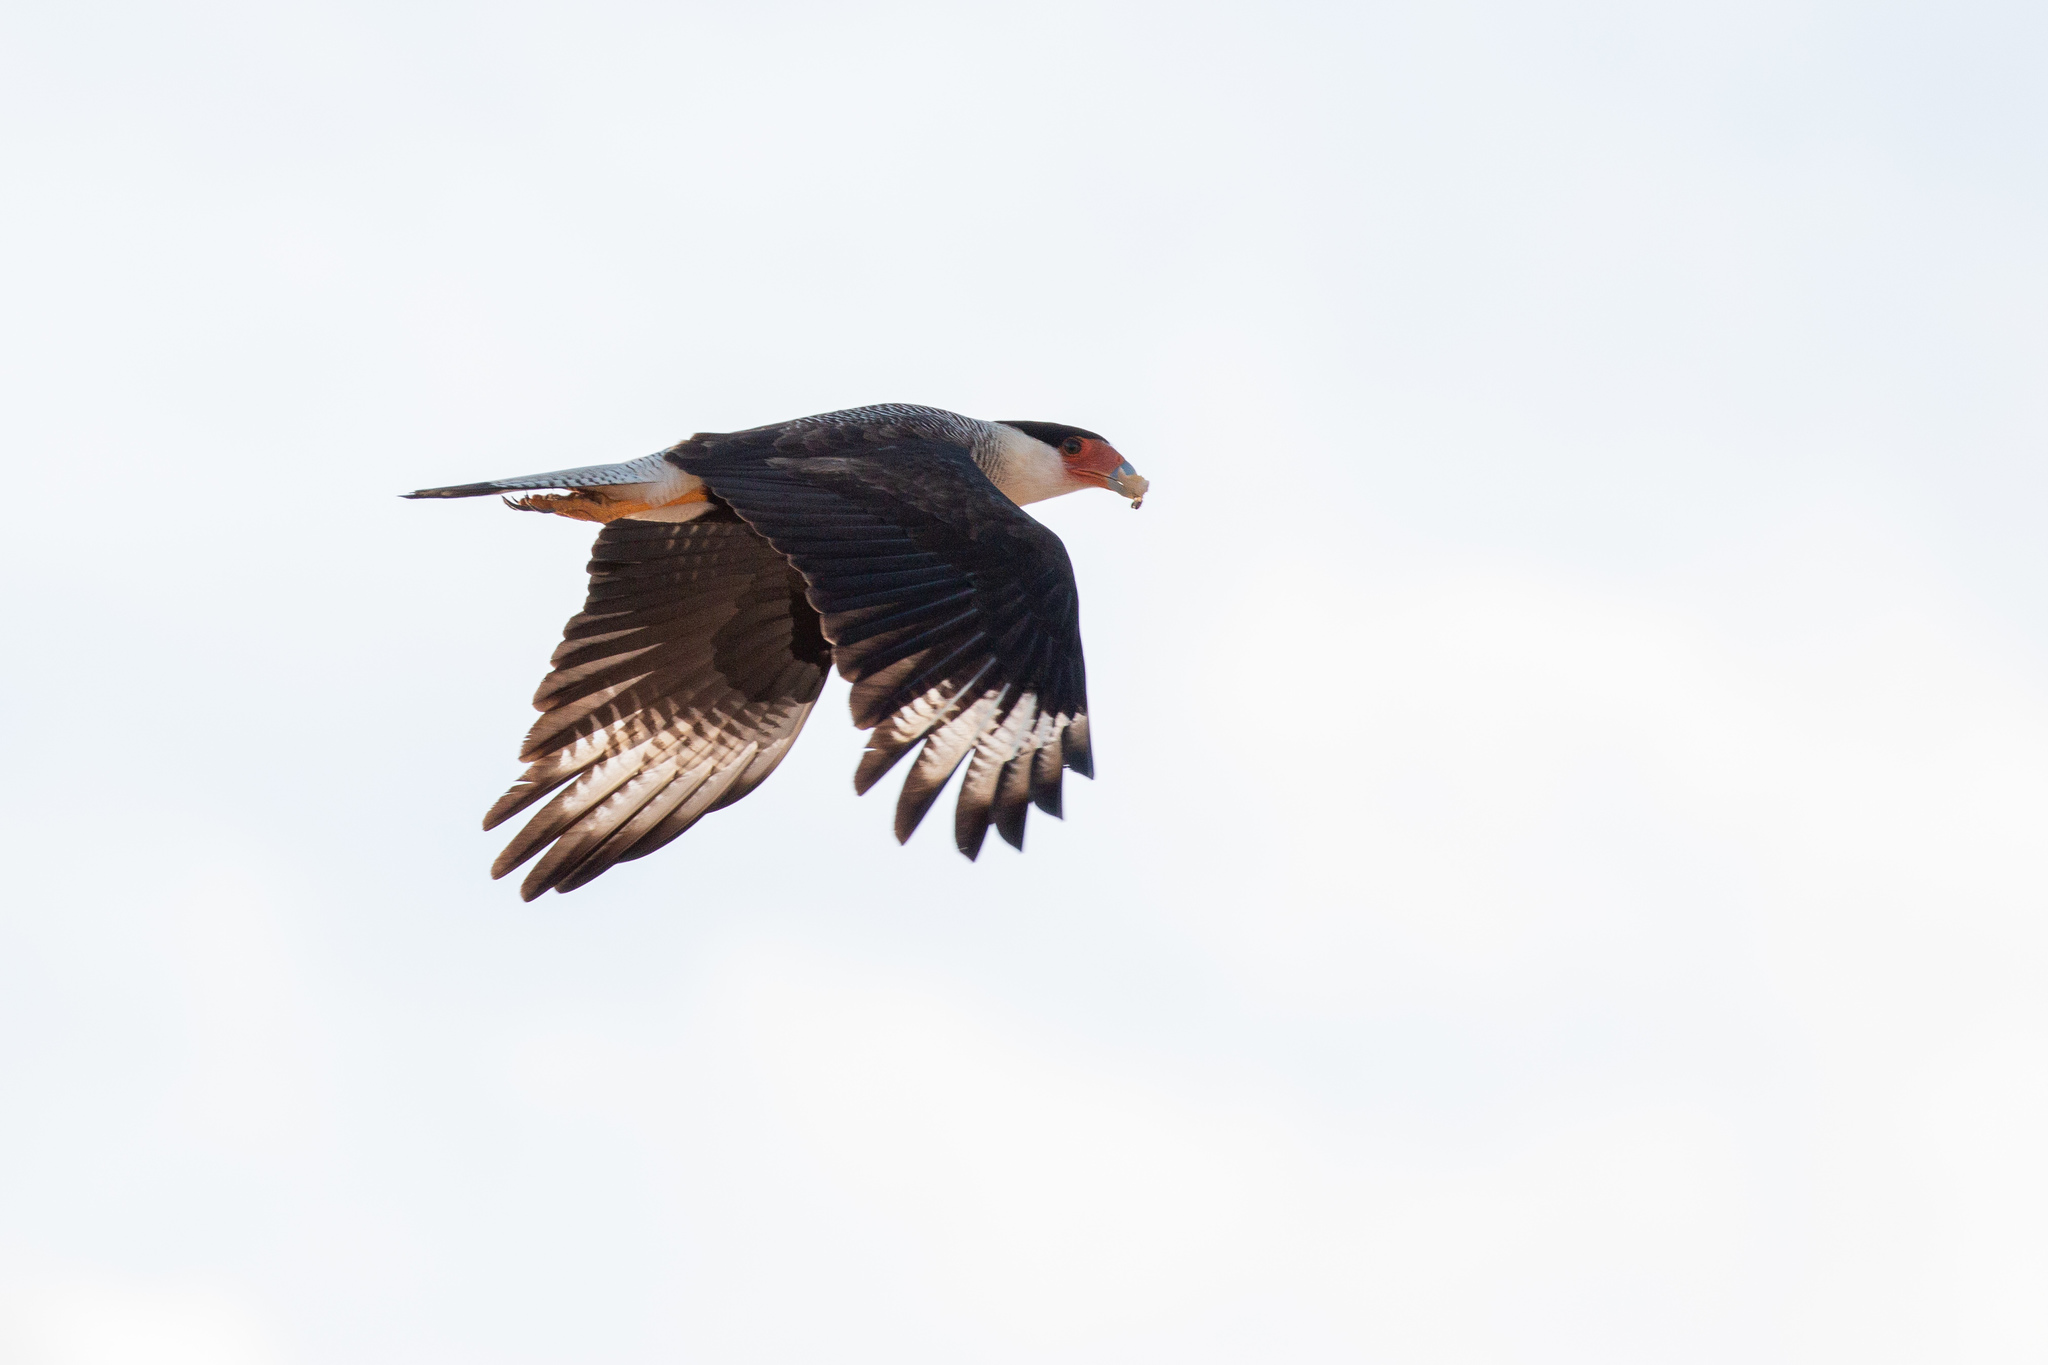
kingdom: Animalia
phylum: Chordata
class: Aves
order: Falconiformes
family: Falconidae
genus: Caracara
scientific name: Caracara plancus
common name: Southern caracara
